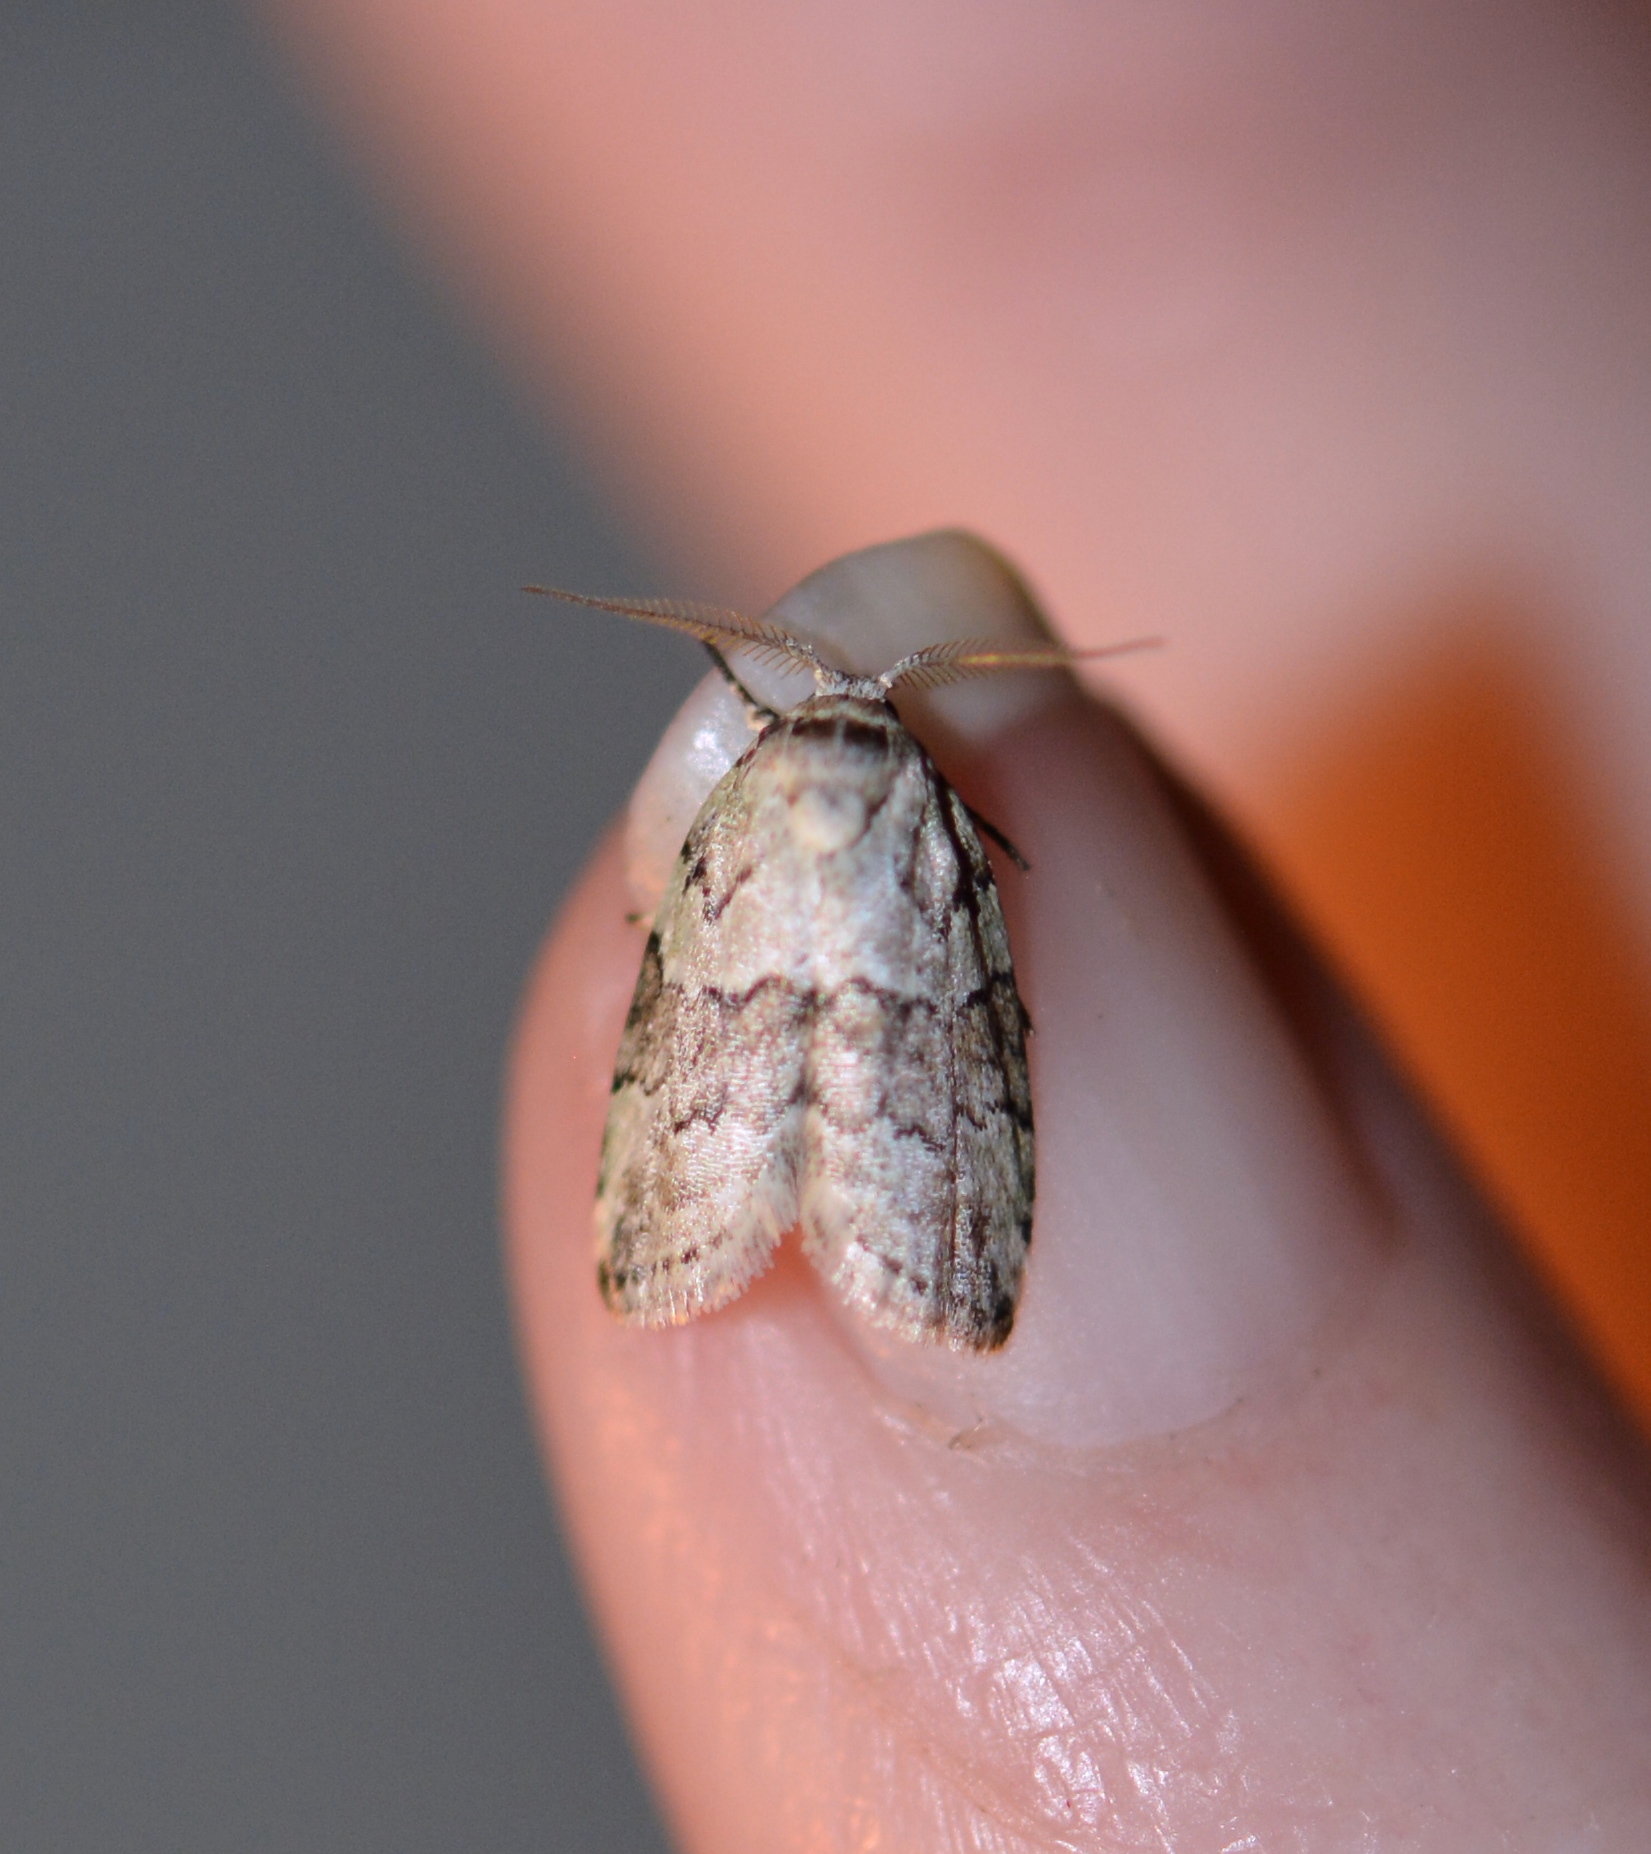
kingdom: Animalia
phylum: Arthropoda
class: Insecta
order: Lepidoptera
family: Nolidae
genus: Afrida
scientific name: Afrida ydatodes
